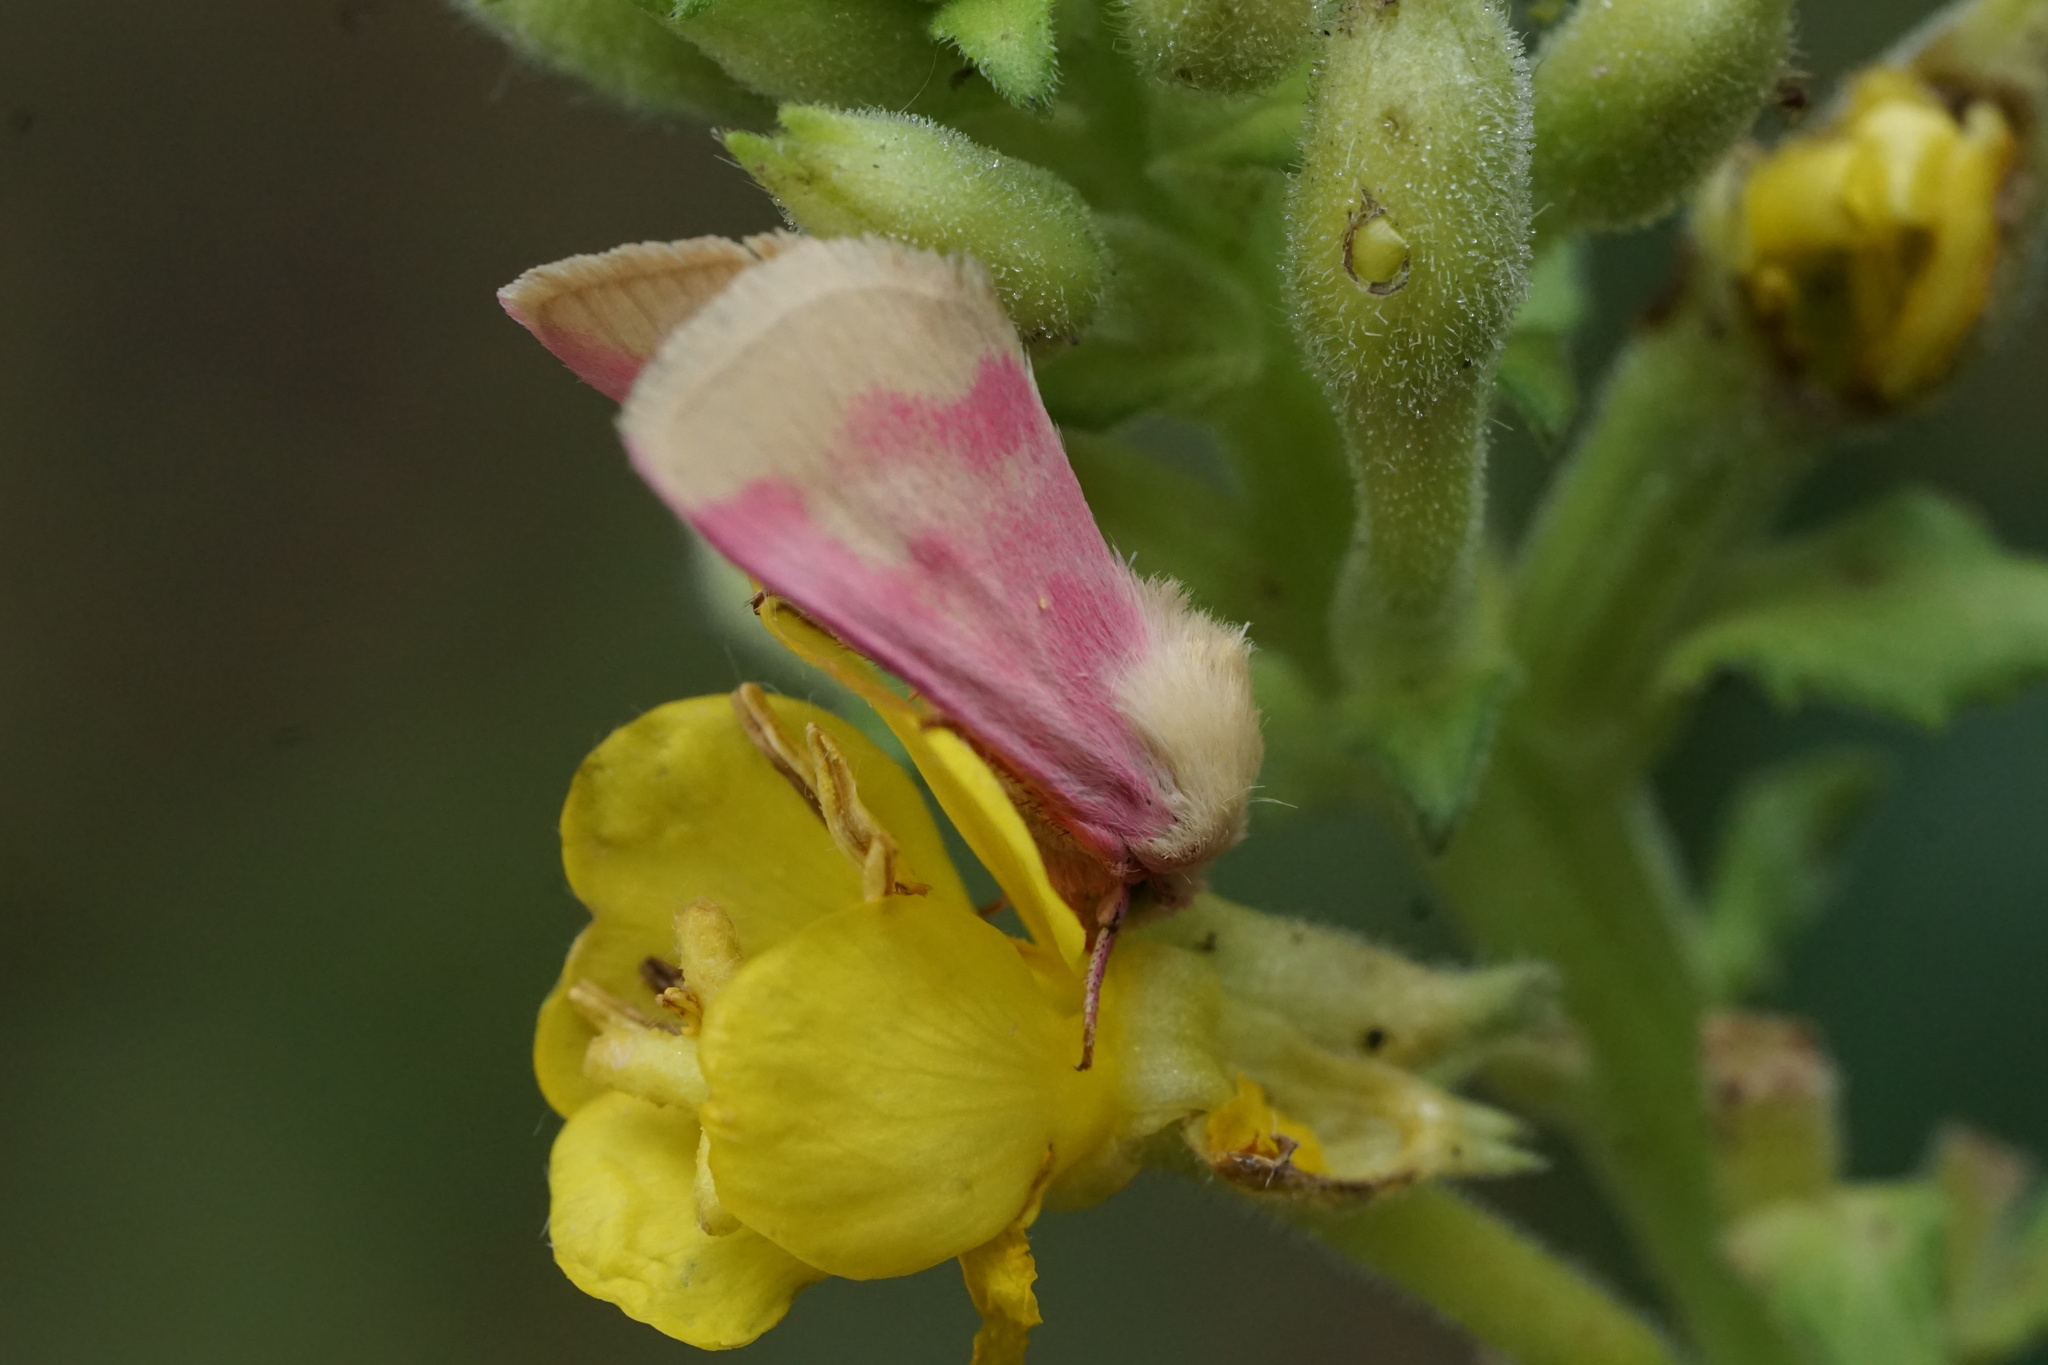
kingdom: Animalia
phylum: Arthropoda
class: Insecta
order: Lepidoptera
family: Noctuidae
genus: Schinia
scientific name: Schinia florida
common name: Primrose moth
